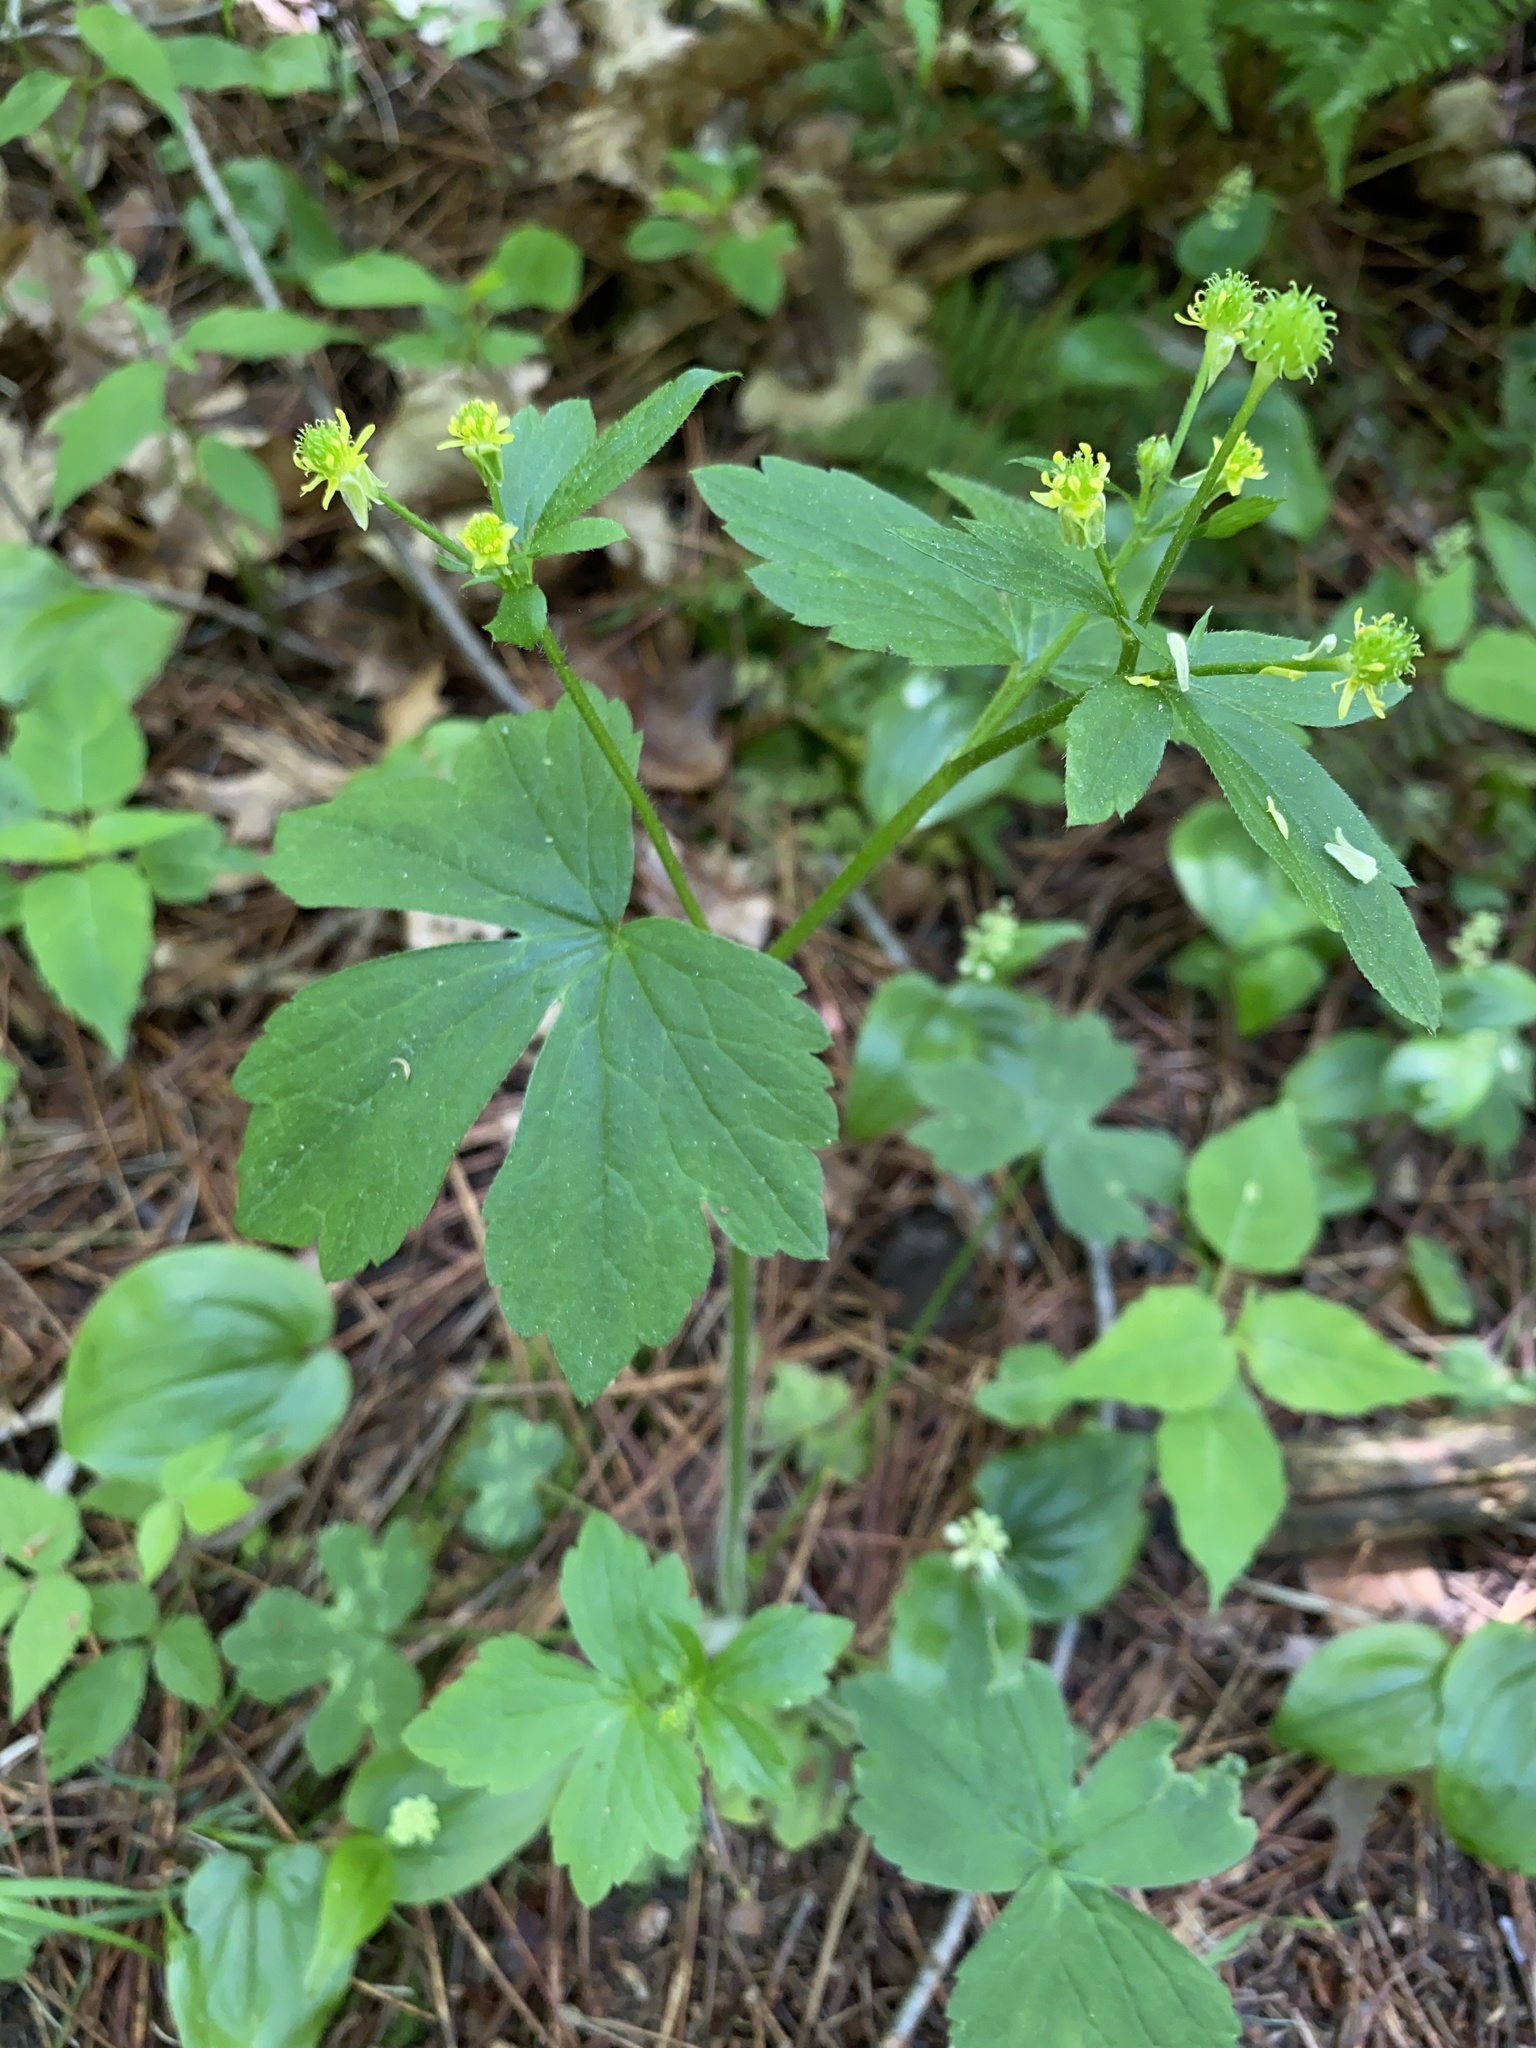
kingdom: Plantae
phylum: Tracheophyta
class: Magnoliopsida
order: Ranunculales
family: Ranunculaceae
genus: Ranunculus
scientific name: Ranunculus recurvatus
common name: Blisterwort
